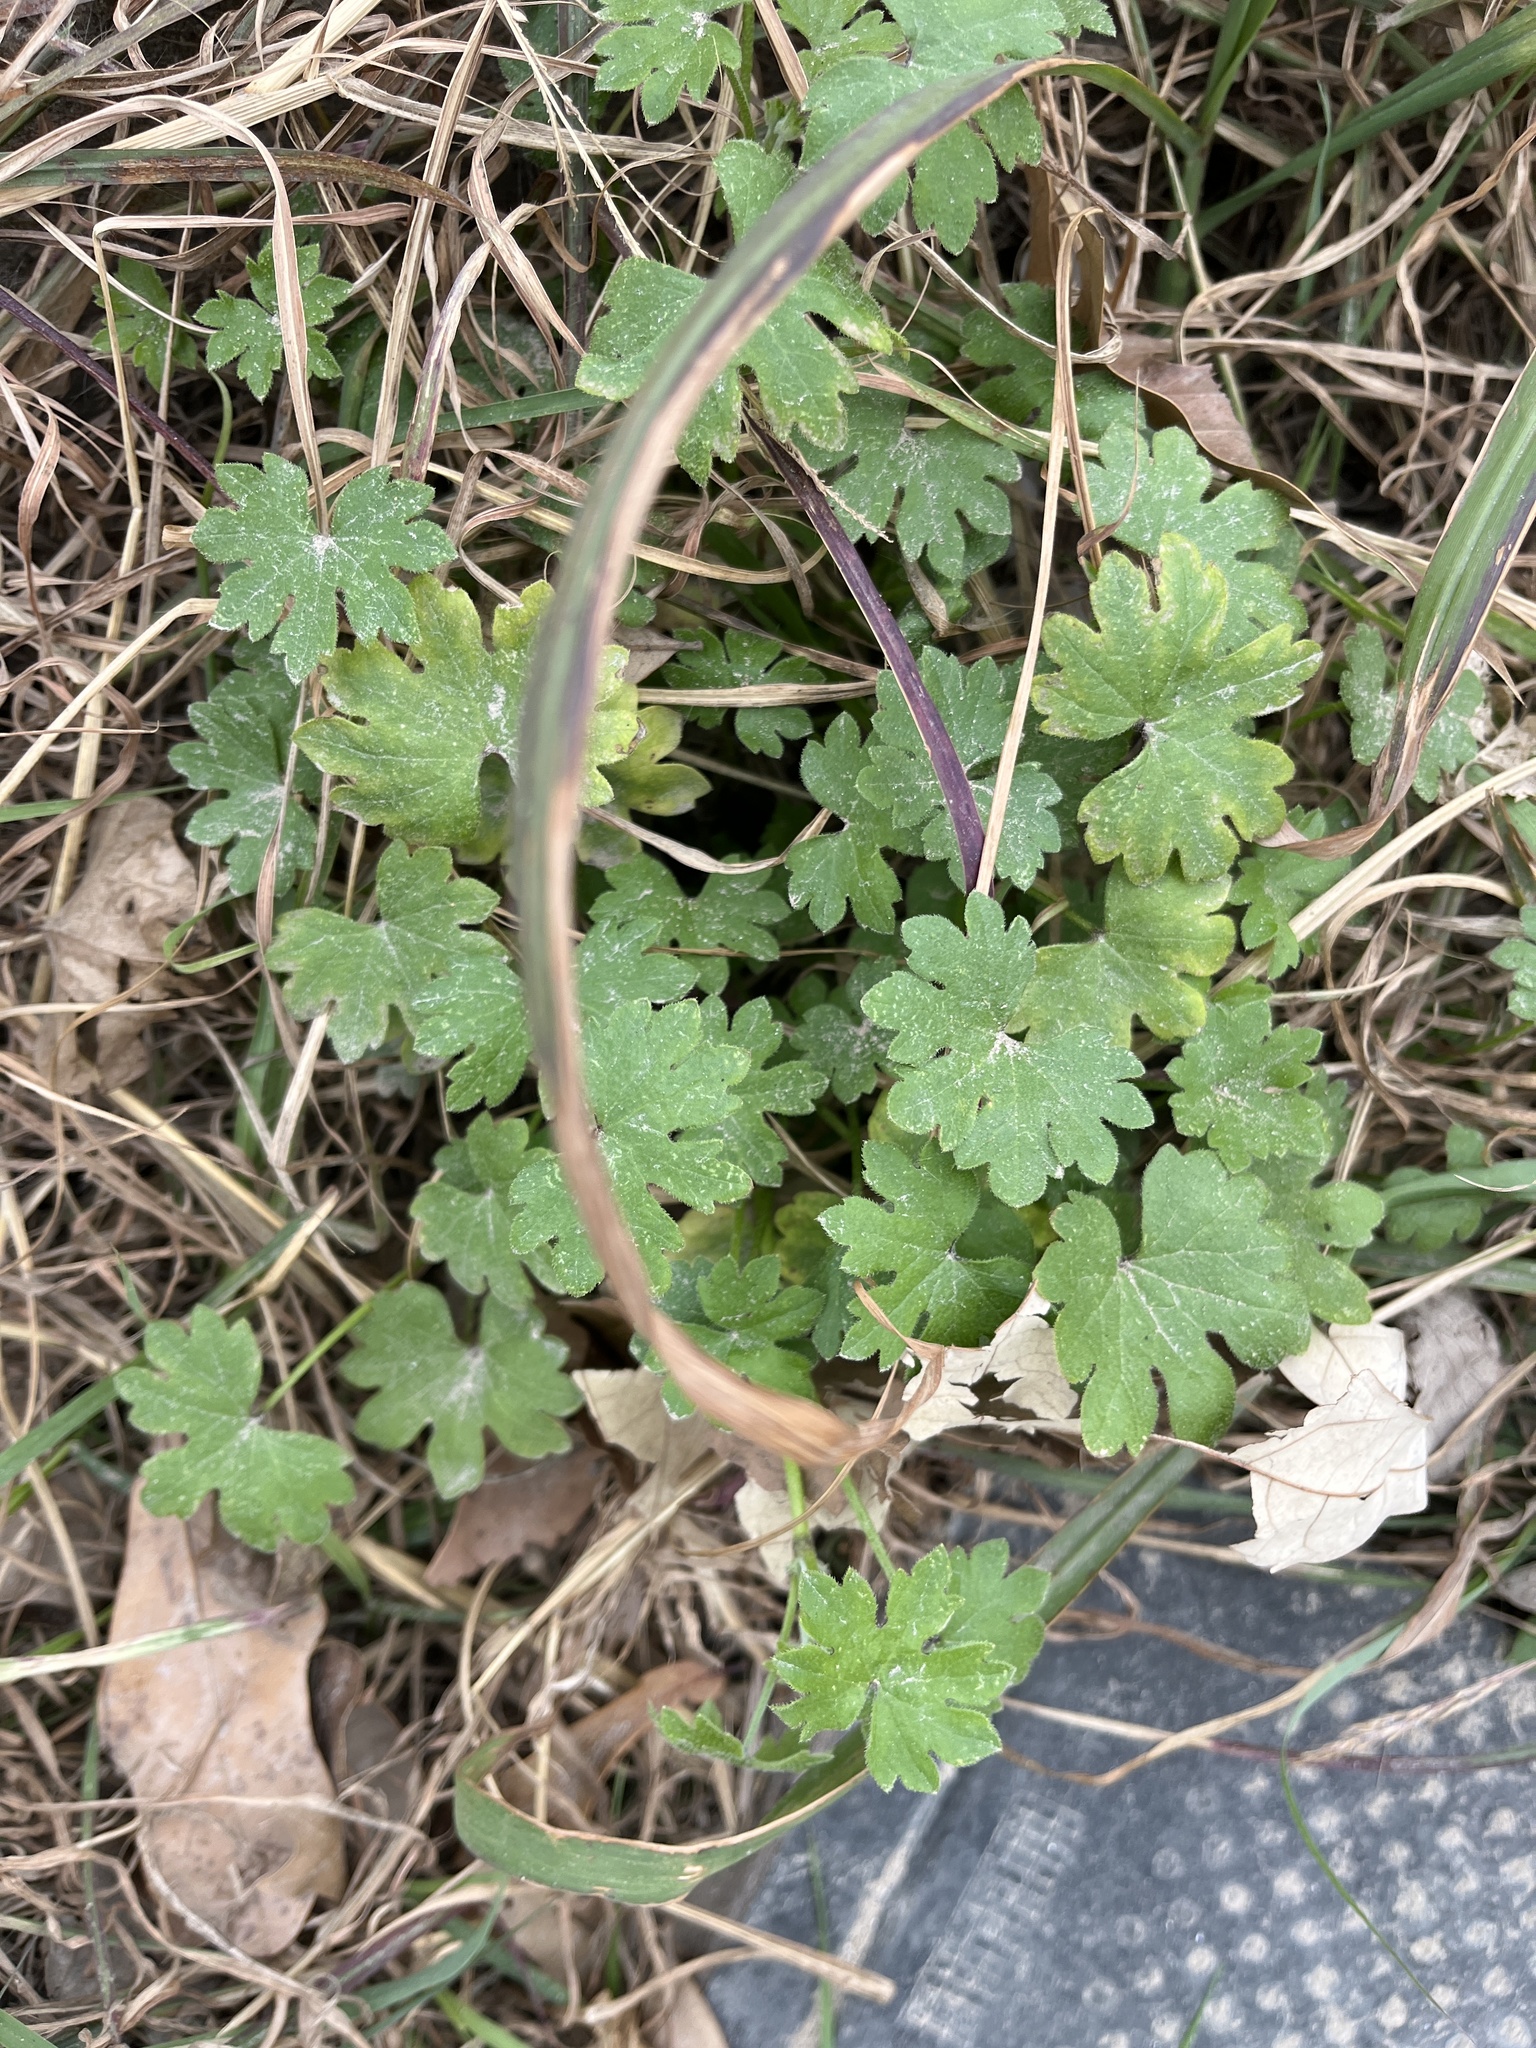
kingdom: Plantae
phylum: Tracheophyta
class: Magnoliopsida
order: Apiales
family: Apiaceae
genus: Bowlesia
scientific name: Bowlesia incana
